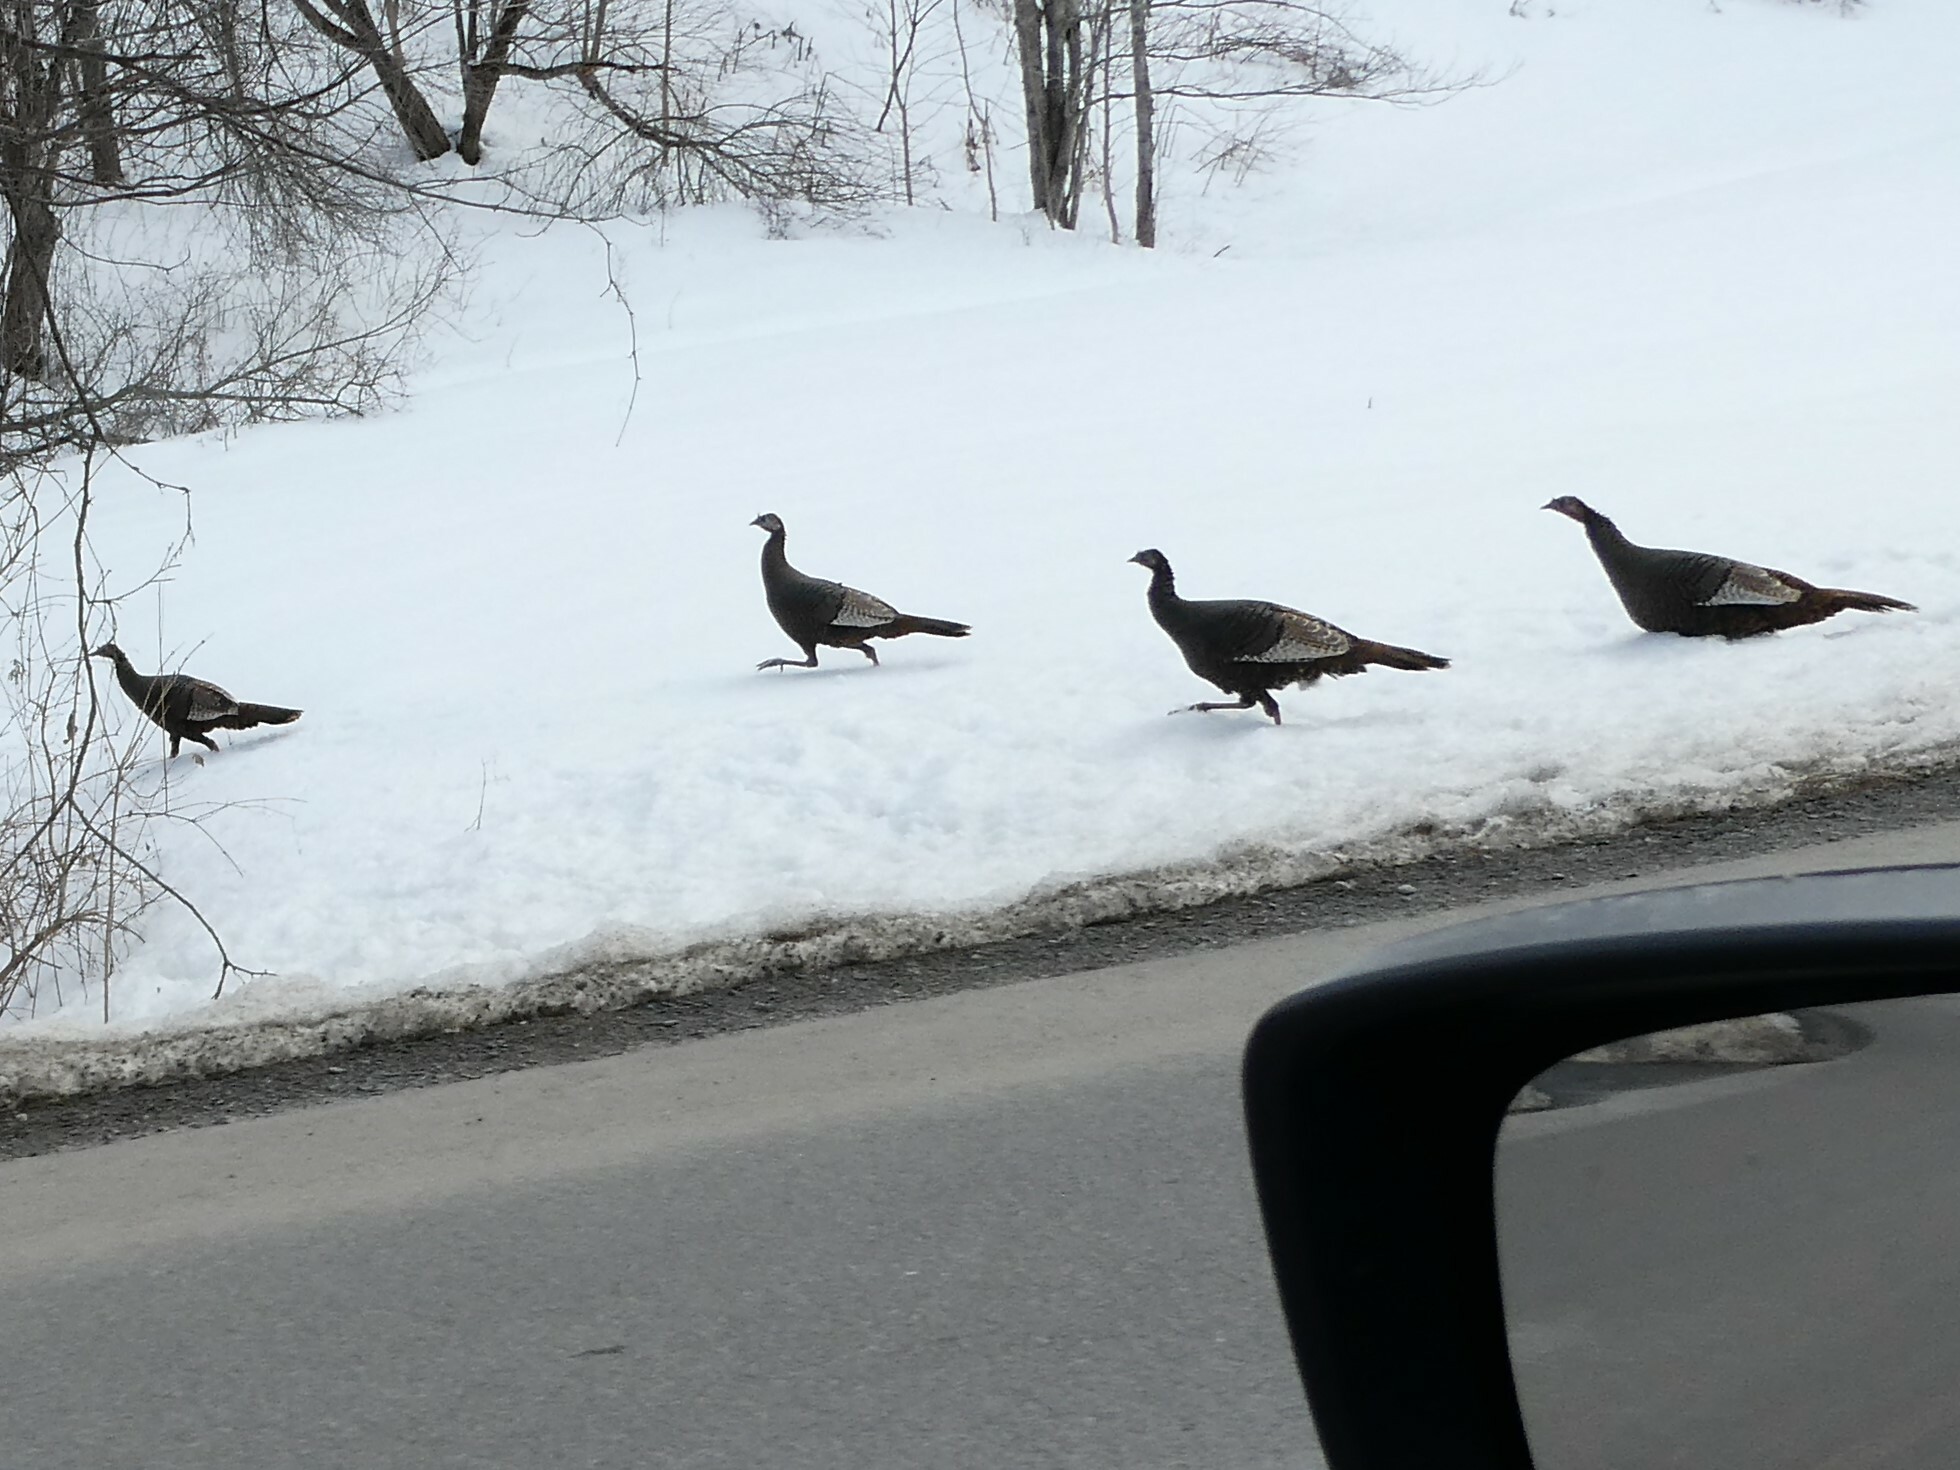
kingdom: Animalia
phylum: Chordata
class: Aves
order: Galliformes
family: Phasianidae
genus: Meleagris
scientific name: Meleagris gallopavo
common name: Wild turkey
